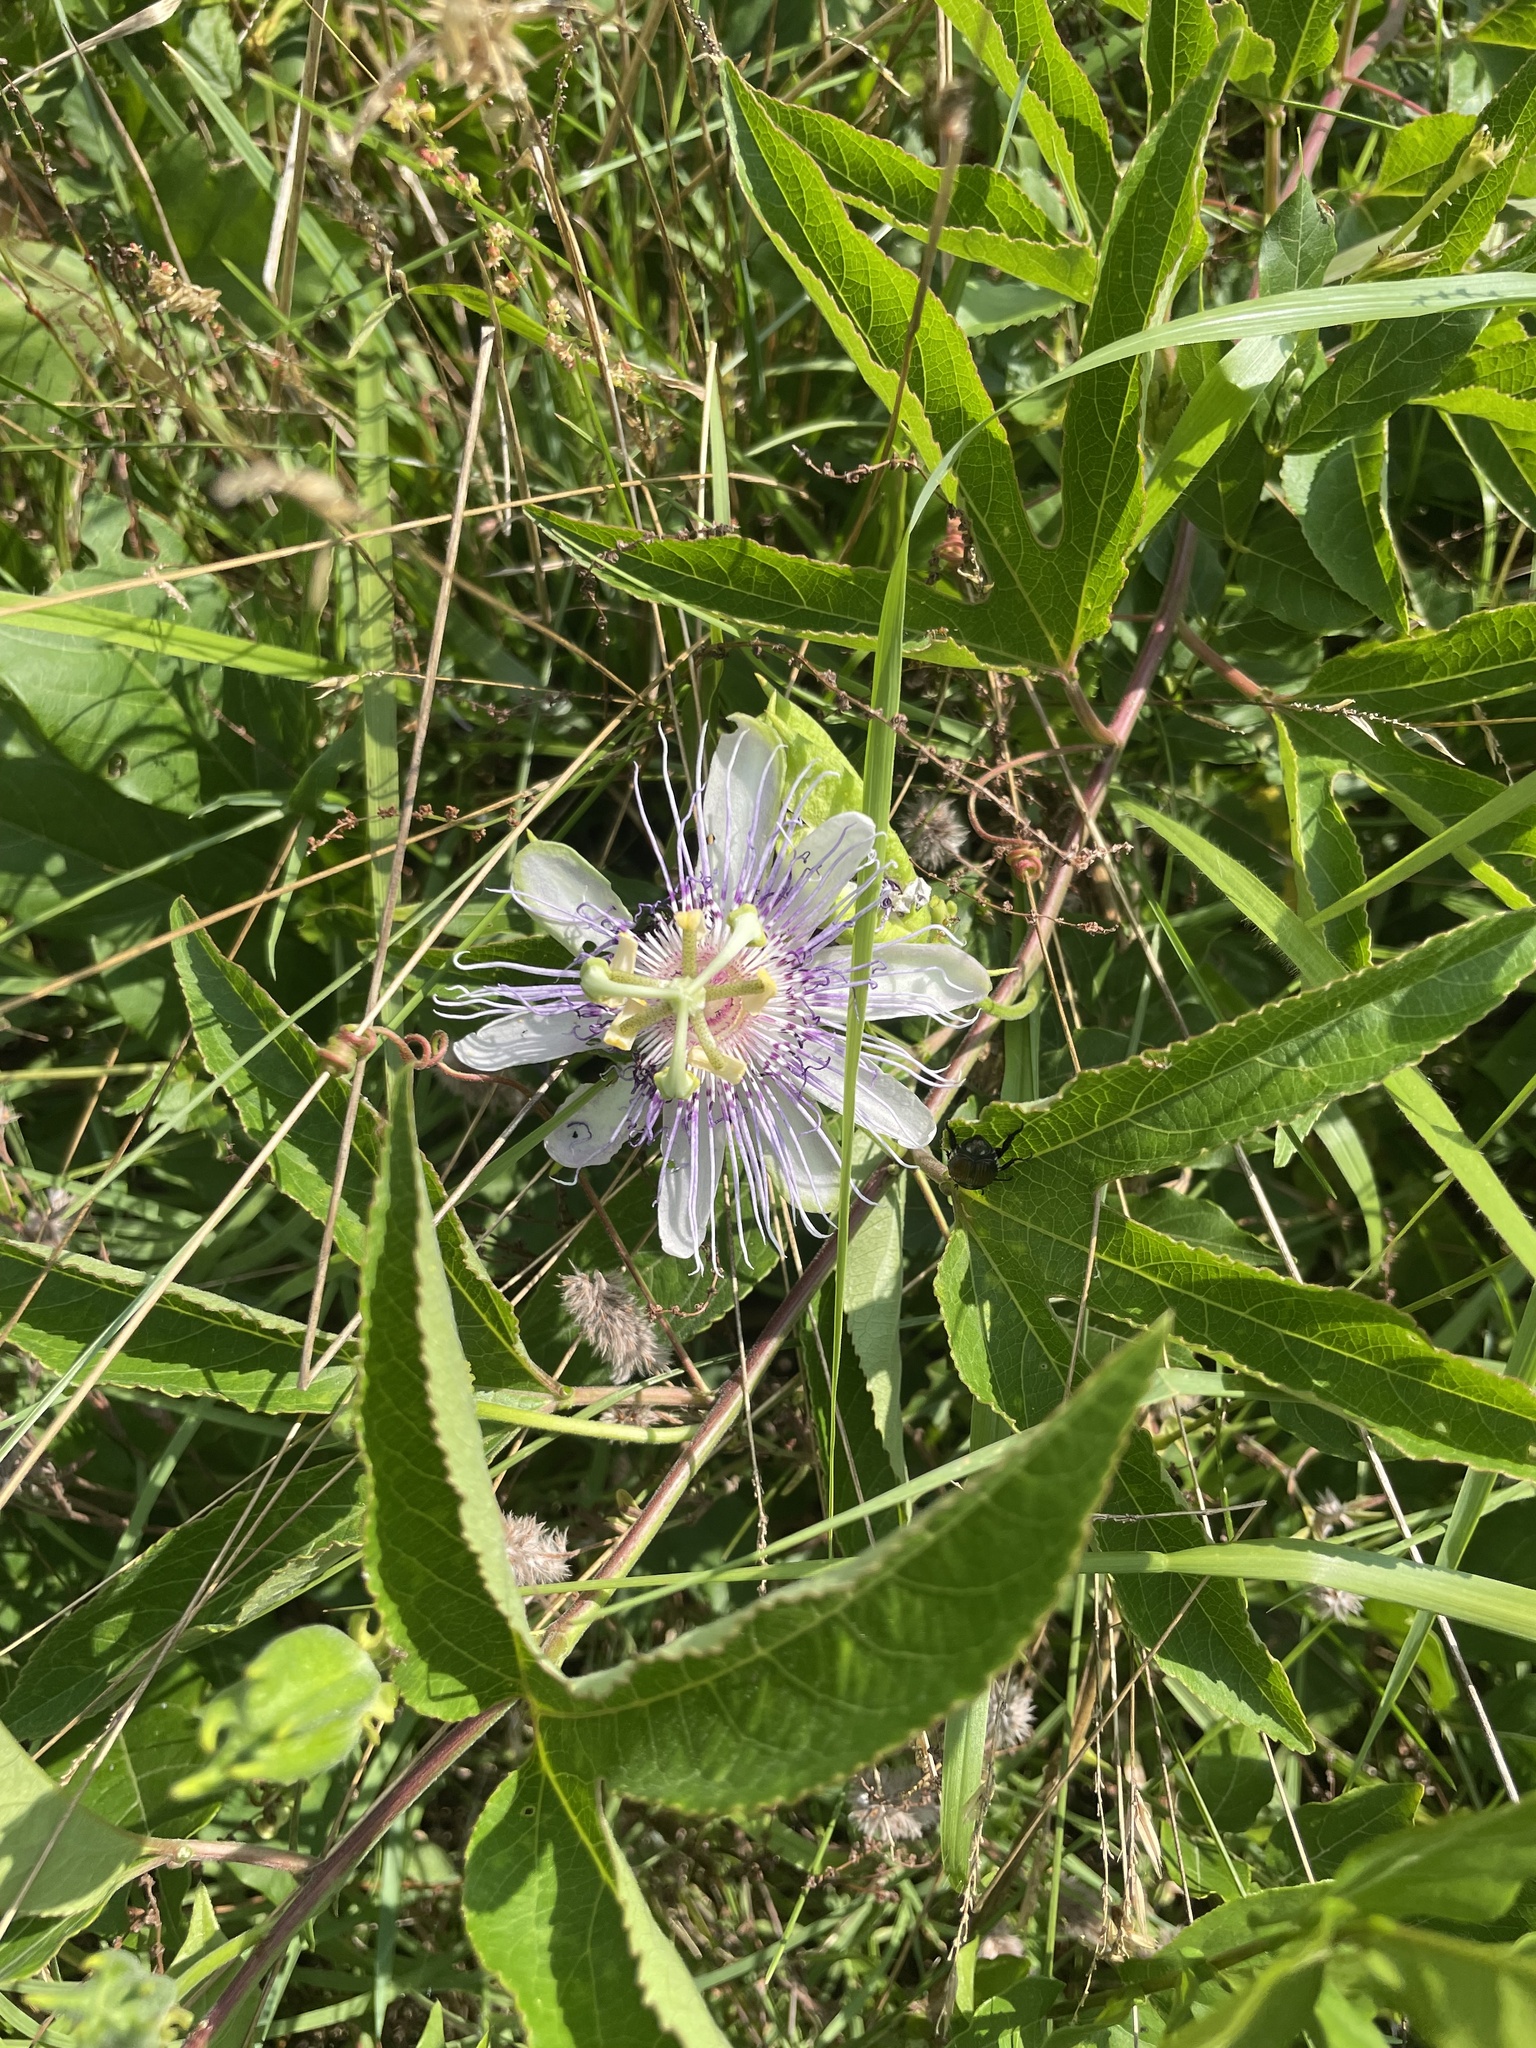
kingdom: Plantae
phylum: Tracheophyta
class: Magnoliopsida
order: Malpighiales
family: Passifloraceae
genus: Passiflora
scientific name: Passiflora incarnata
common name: Apricot-vine
